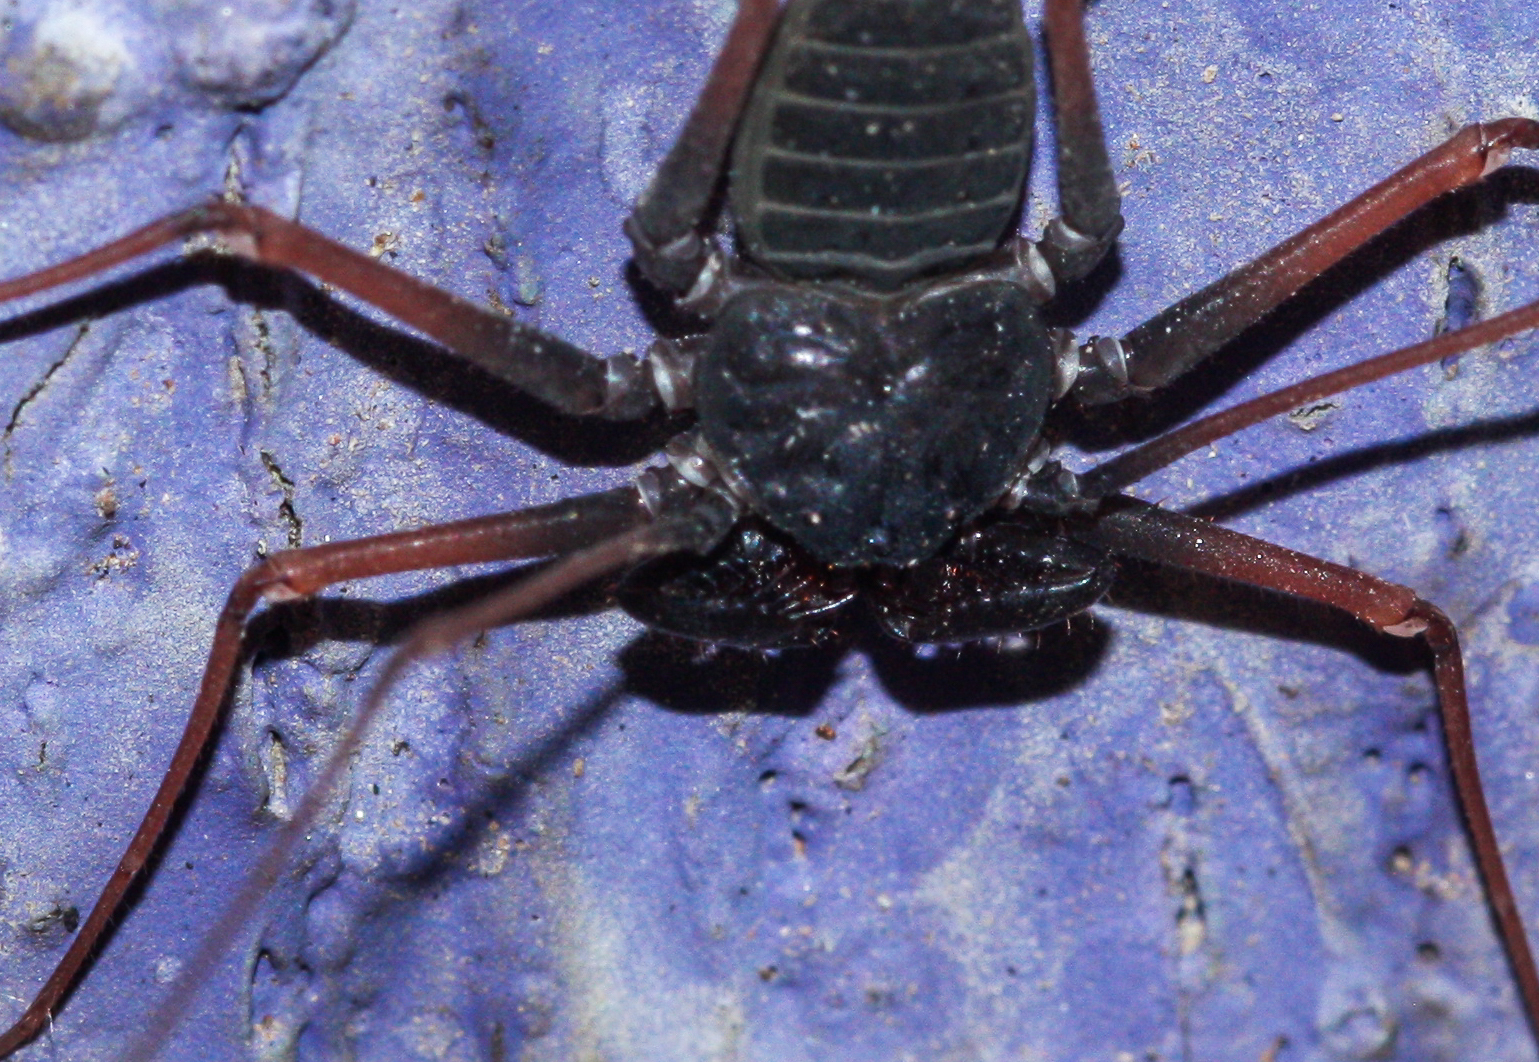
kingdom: Animalia
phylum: Arthropoda
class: Arachnida
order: Amblypygi
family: Phrynidae
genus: Paraphrynus
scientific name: Paraphrynus carolynae
